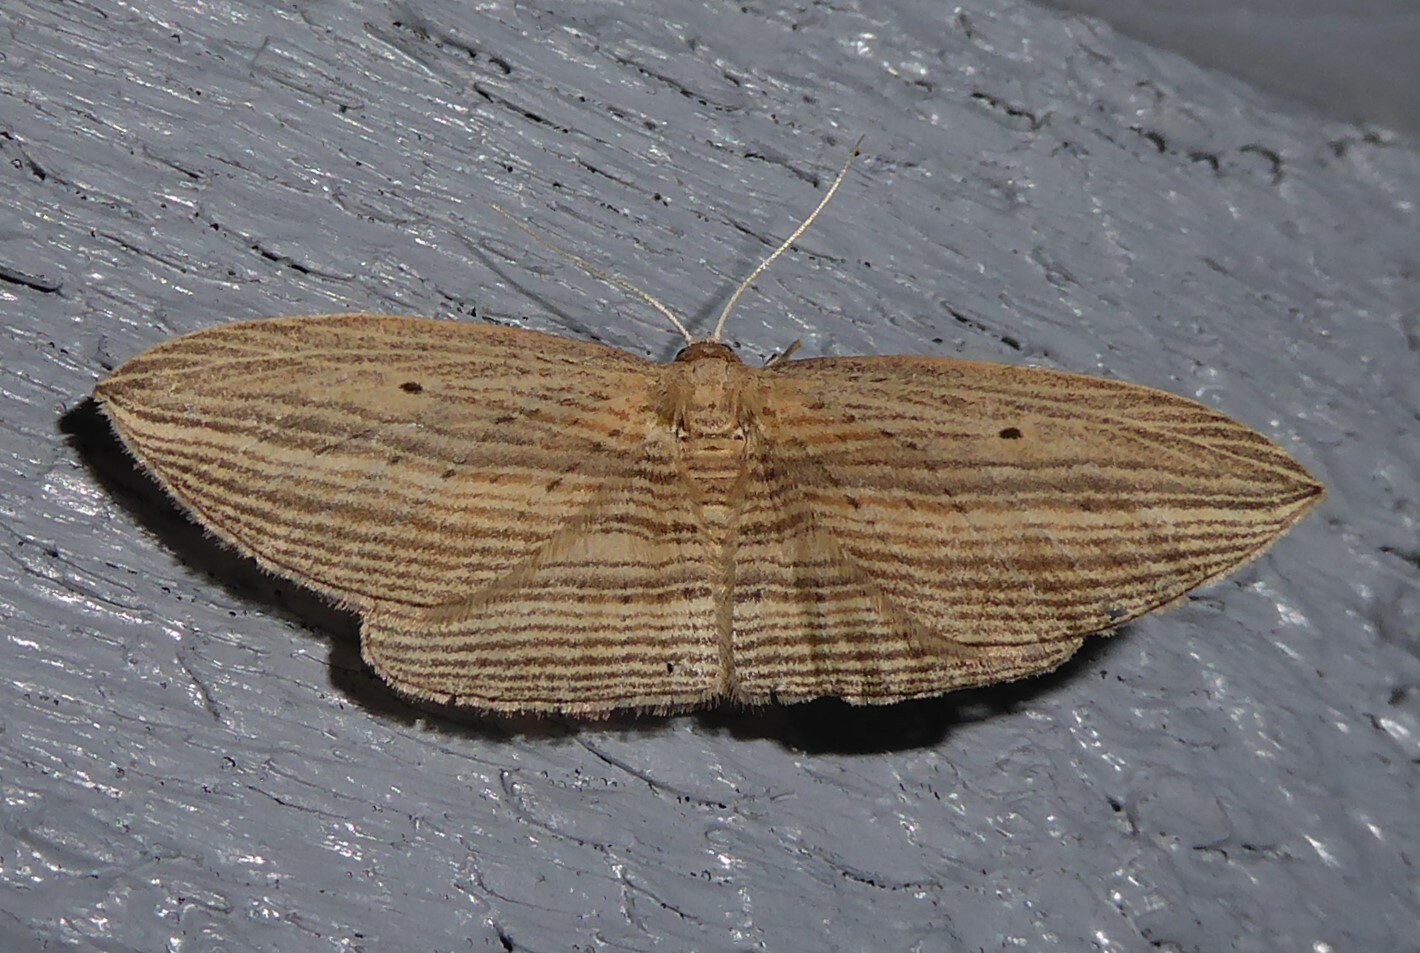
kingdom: Animalia
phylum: Arthropoda
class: Insecta
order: Lepidoptera
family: Geometridae
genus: Epiphryne
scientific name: Epiphryne verriculata
